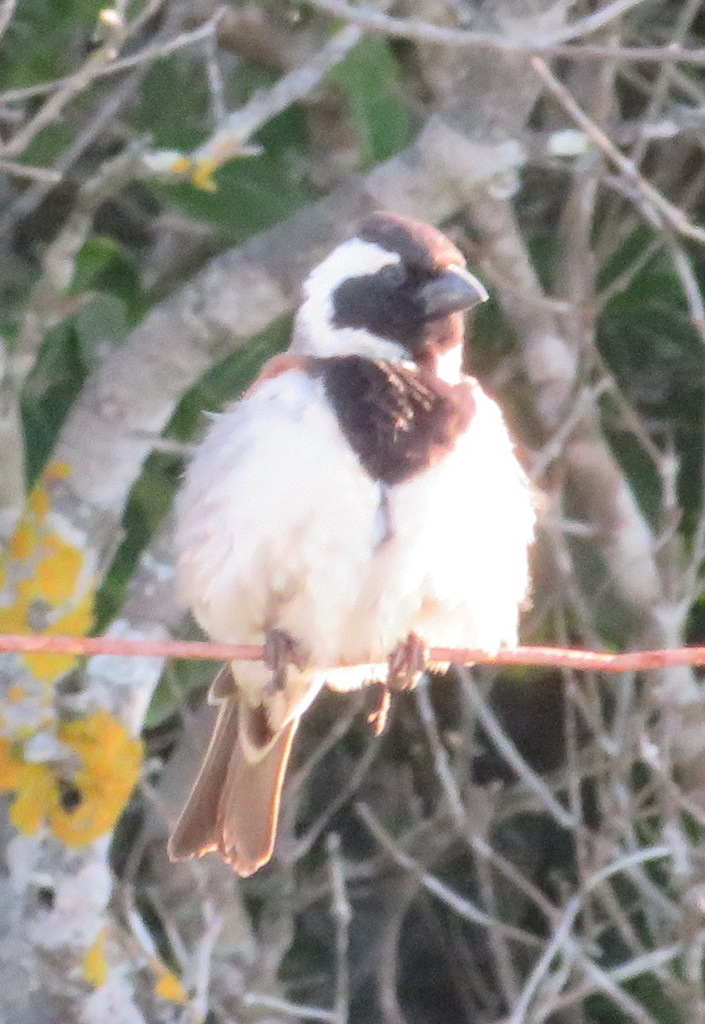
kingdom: Animalia
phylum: Chordata
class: Aves
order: Passeriformes
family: Passeridae
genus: Passer
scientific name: Passer melanurus
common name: Cape sparrow
